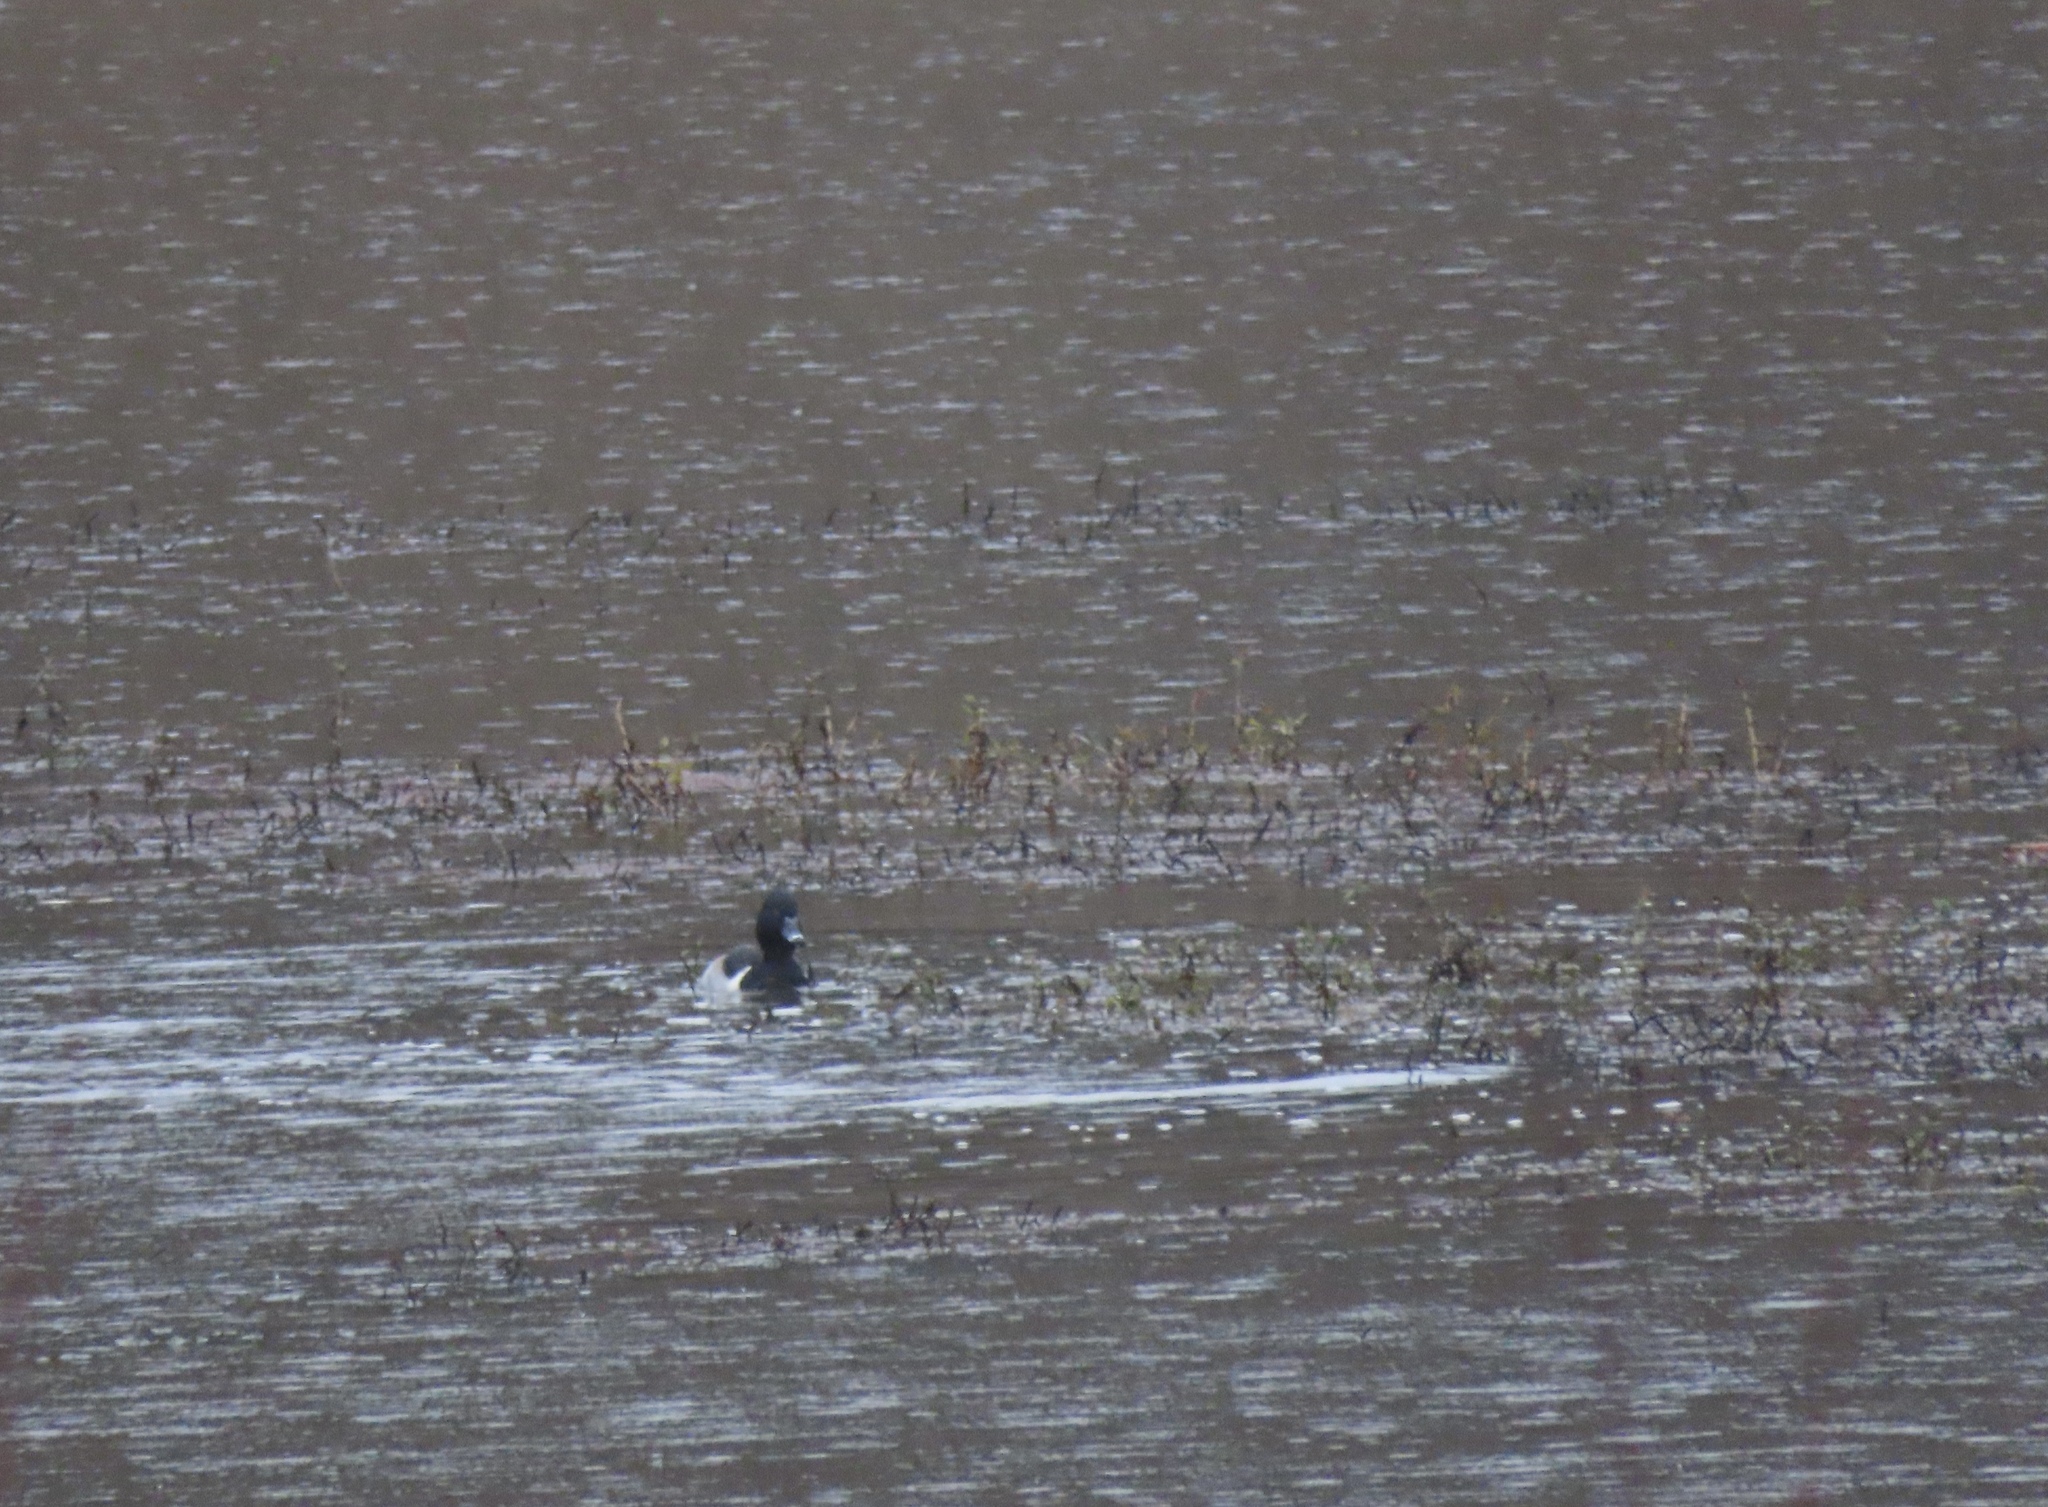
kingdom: Animalia
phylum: Chordata
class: Aves
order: Anseriformes
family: Anatidae
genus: Aythya
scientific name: Aythya collaris
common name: Ring-necked duck
